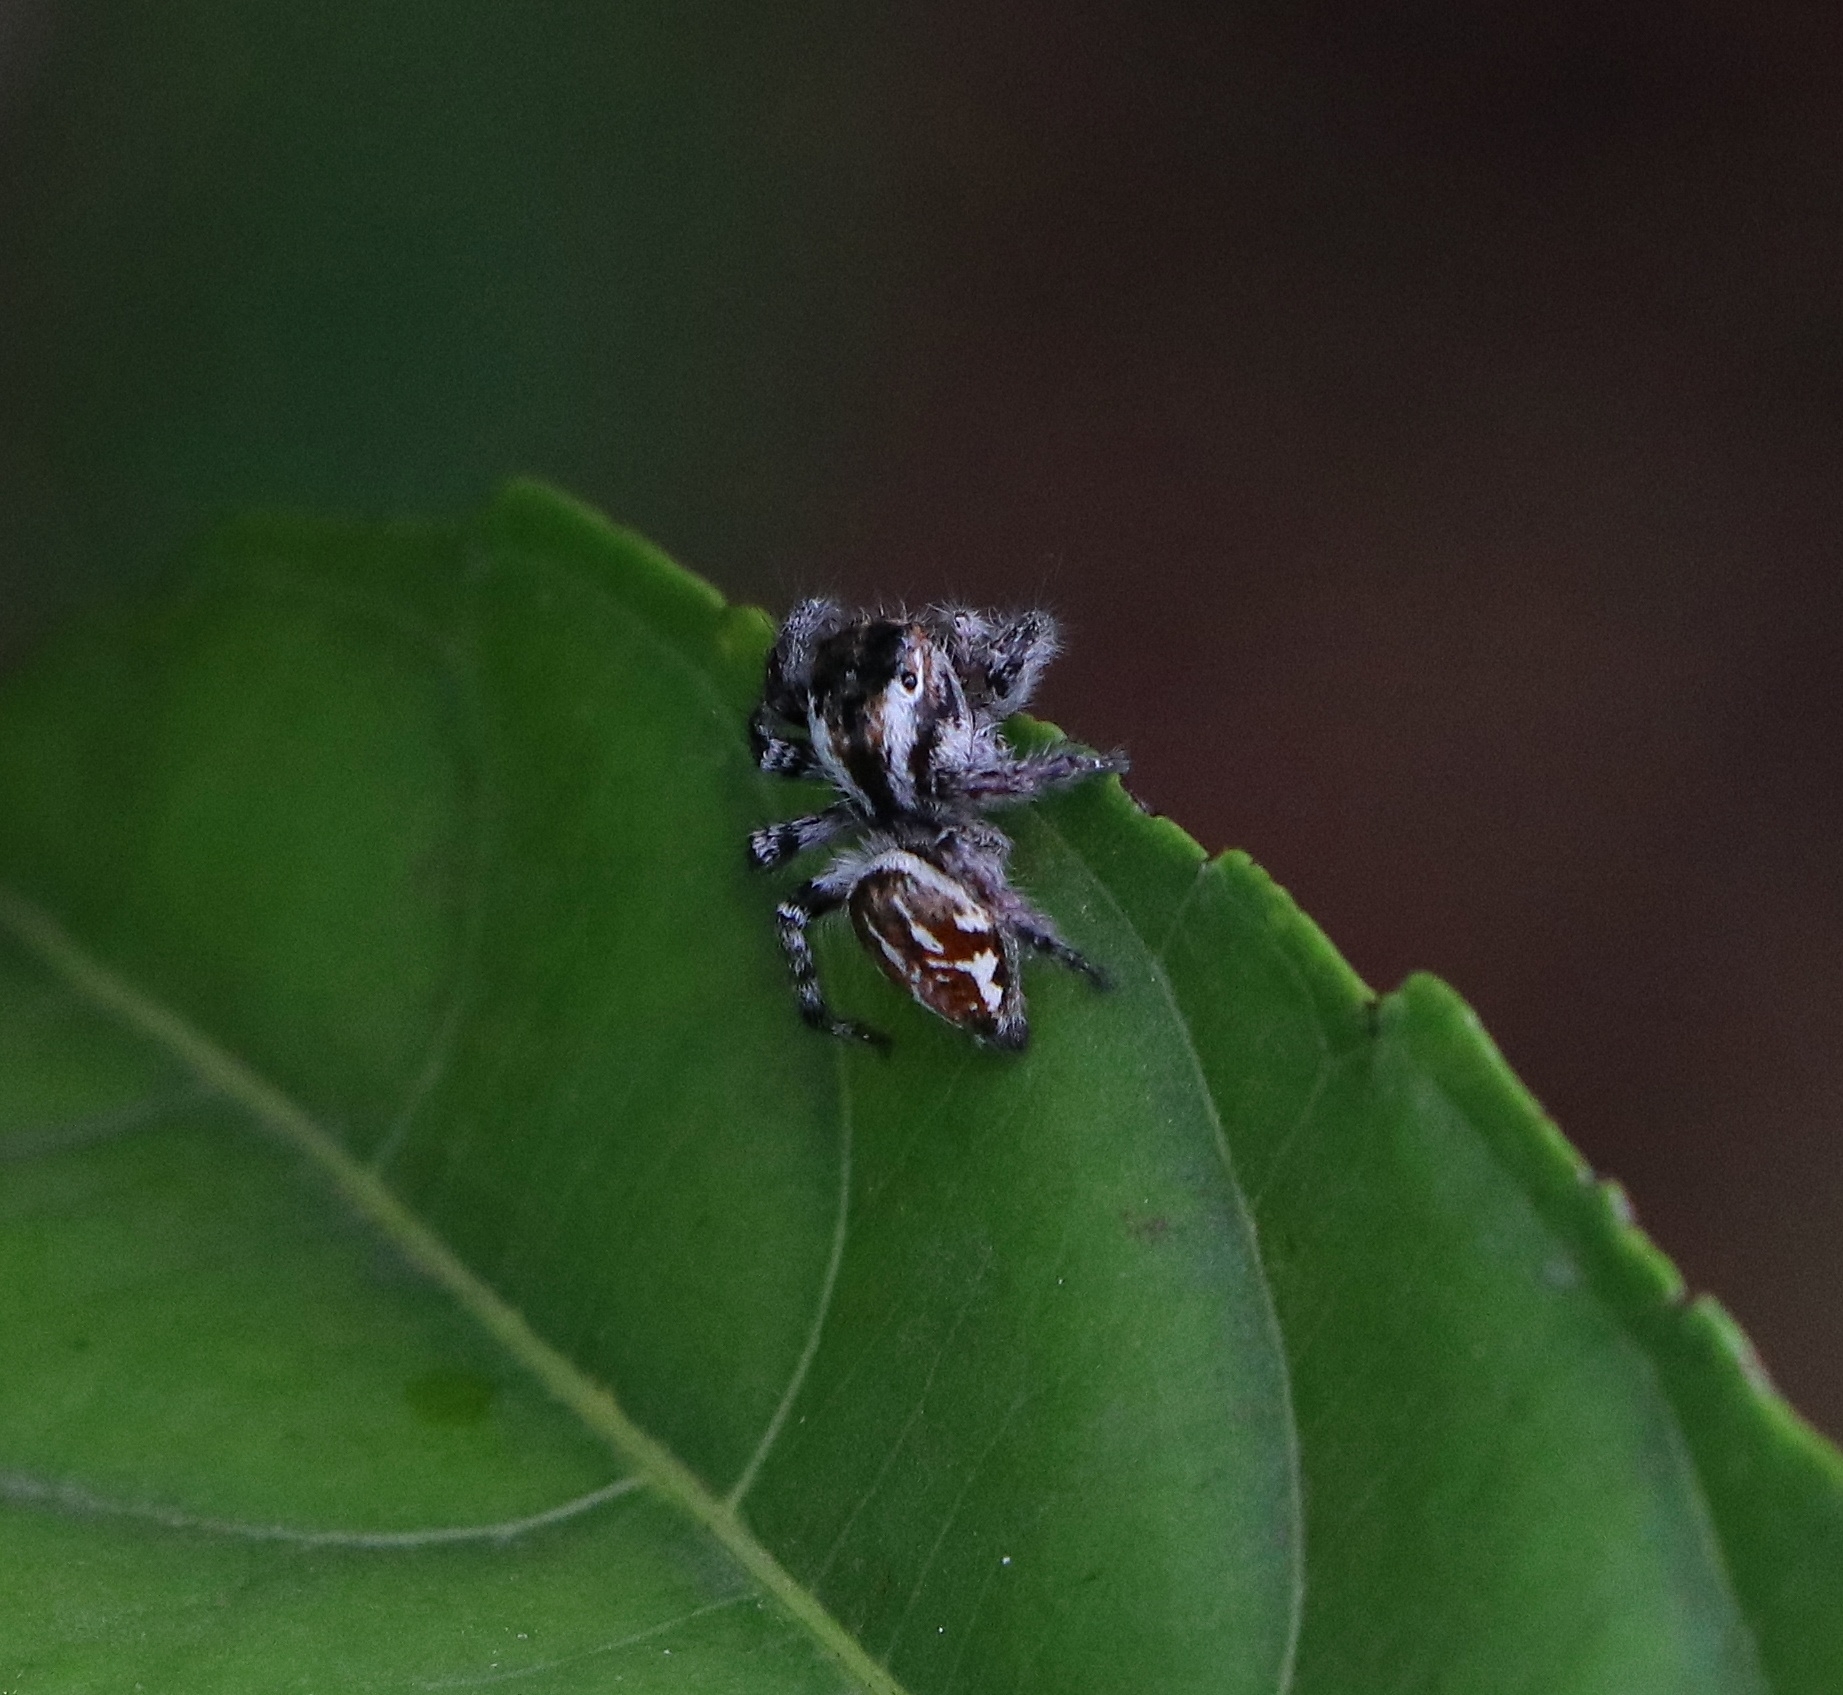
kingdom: Animalia
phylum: Arthropoda
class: Arachnida
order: Araneae
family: Salticidae
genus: Carrhotus
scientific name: Carrhotus viduus
